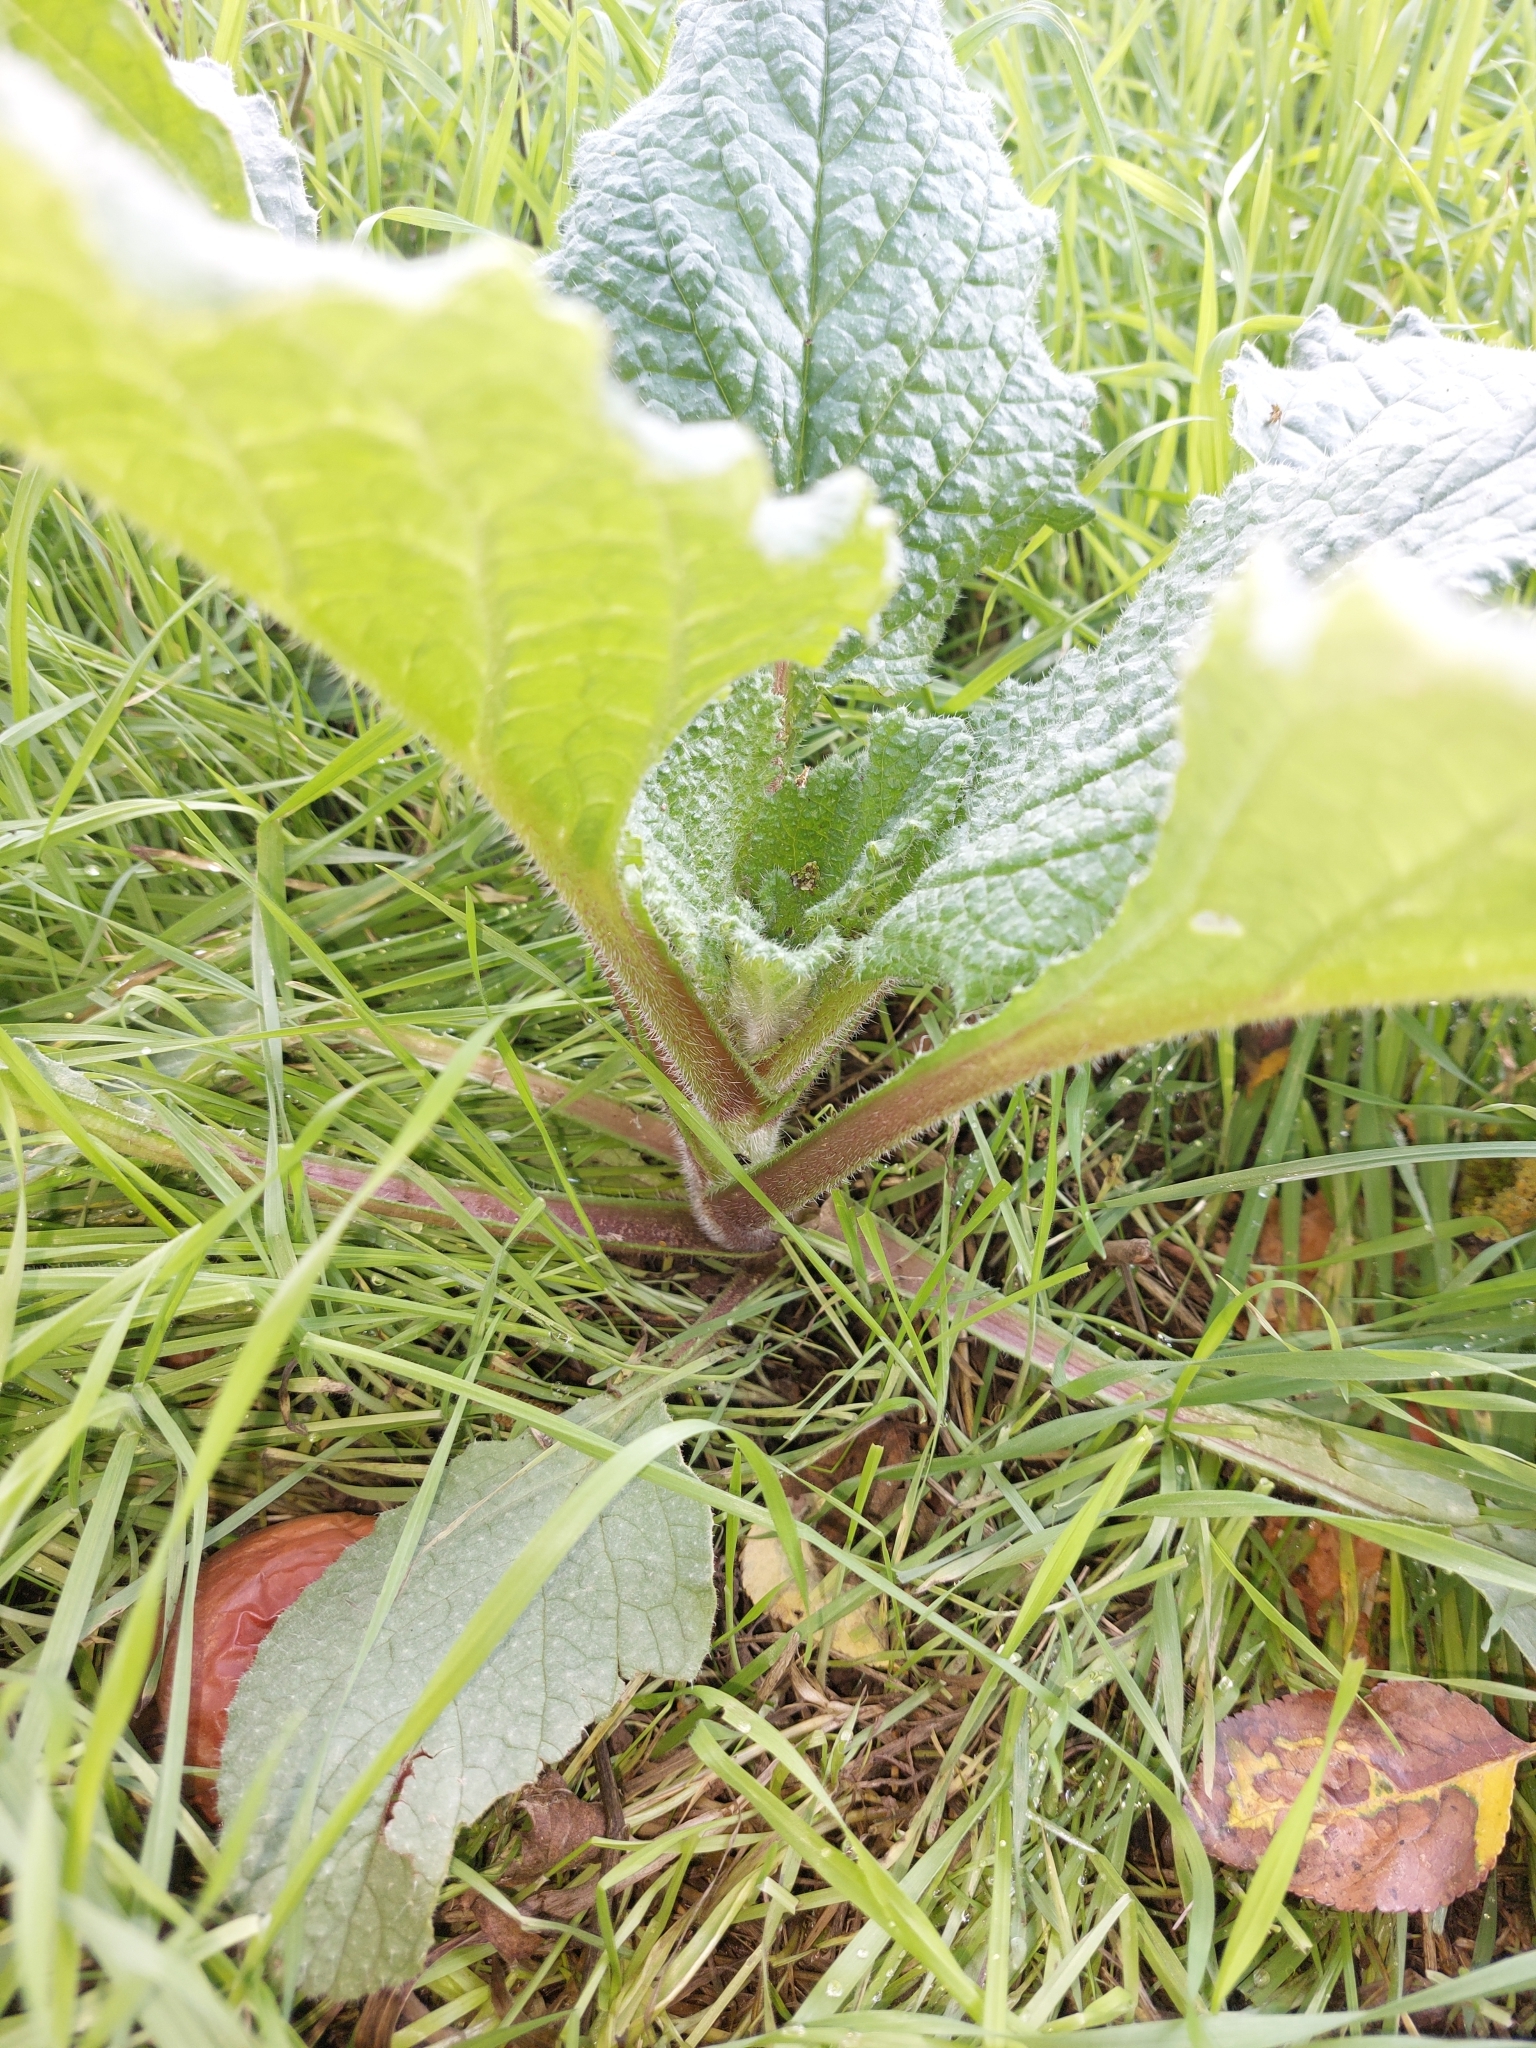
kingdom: Plantae
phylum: Tracheophyta
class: Magnoliopsida
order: Boraginales
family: Boraginaceae
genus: Borago
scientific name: Borago officinalis
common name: Borage
